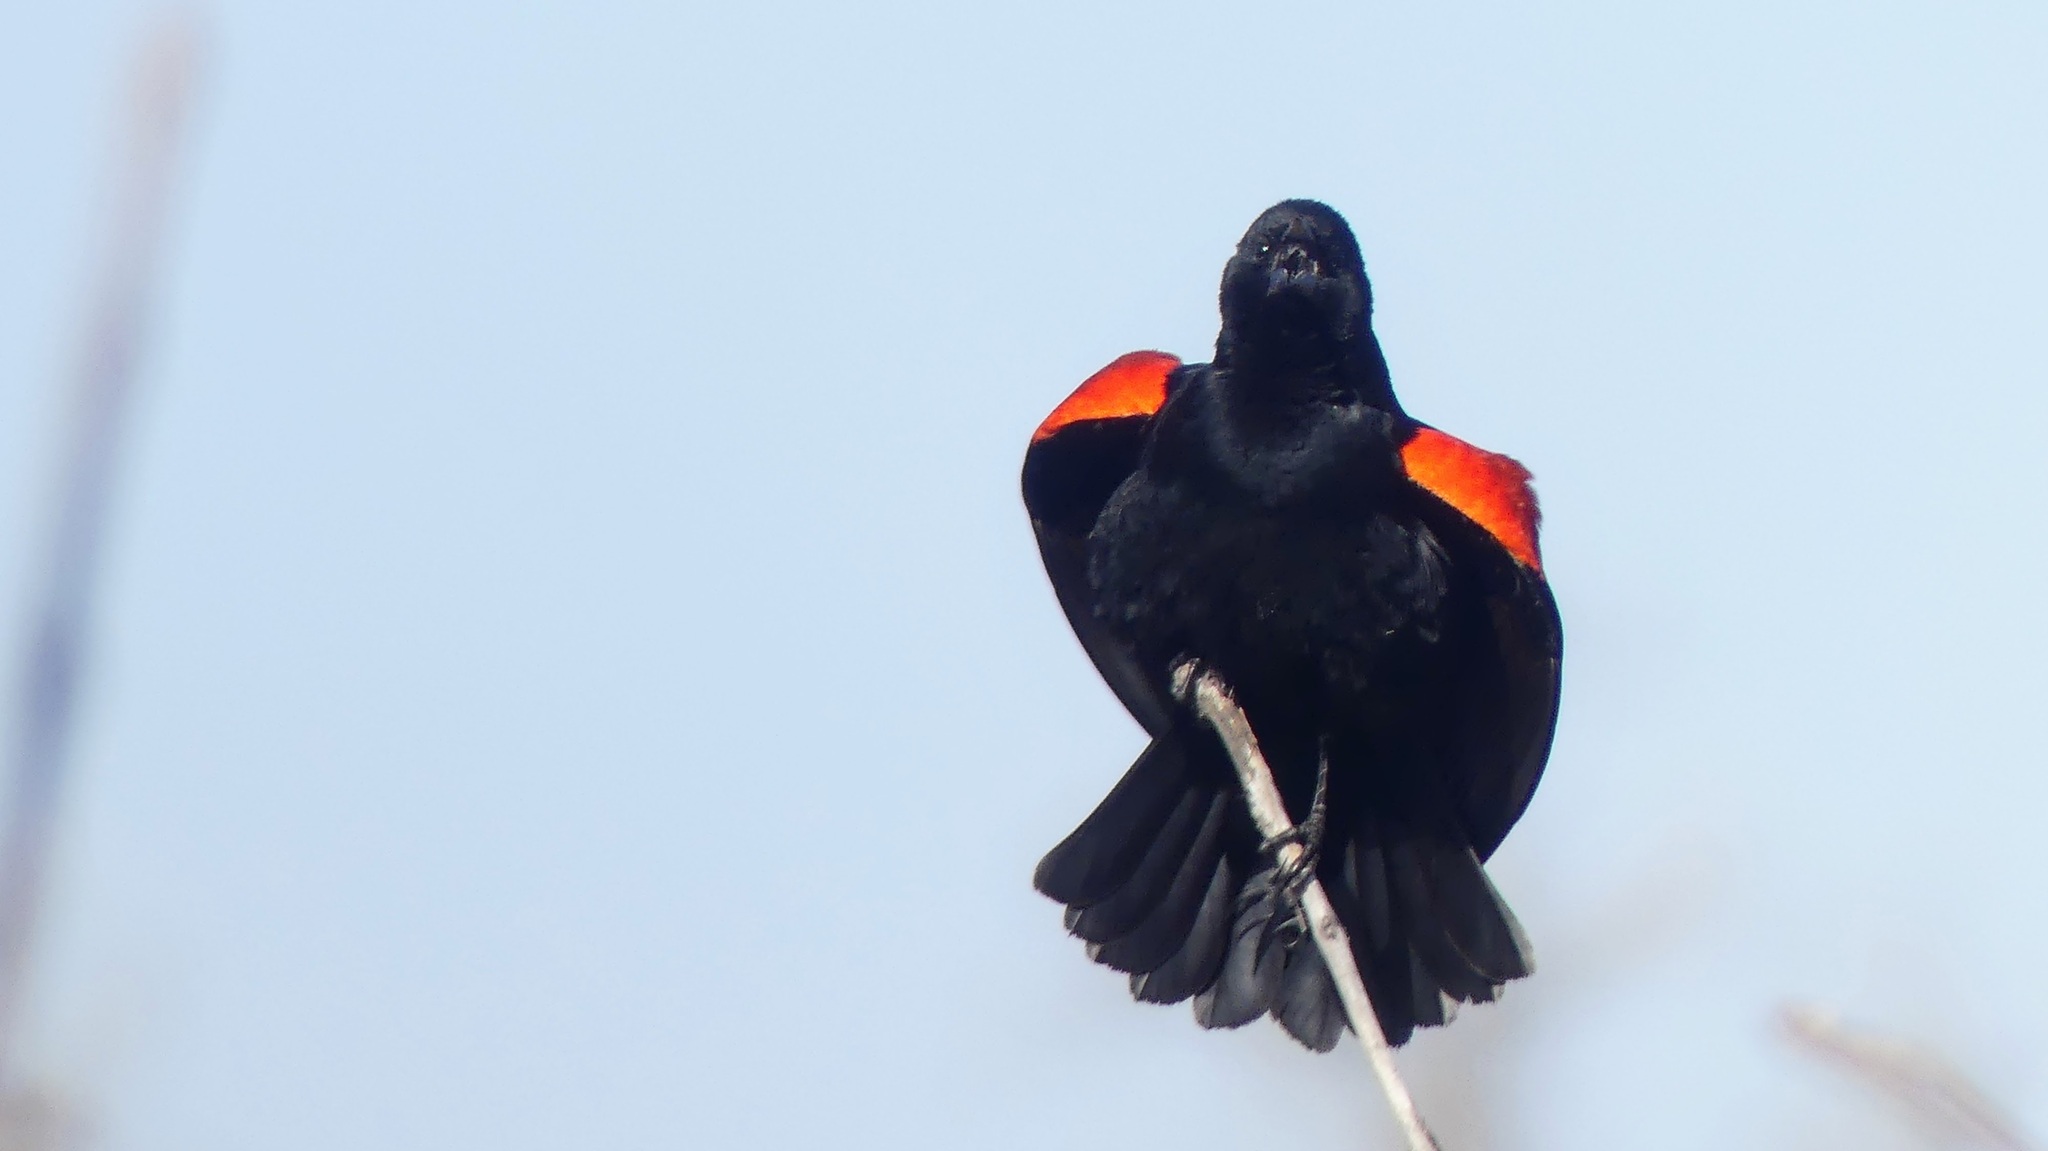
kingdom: Animalia
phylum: Chordata
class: Aves
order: Passeriformes
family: Icteridae
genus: Agelaius
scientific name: Agelaius phoeniceus
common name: Red-winged blackbird
